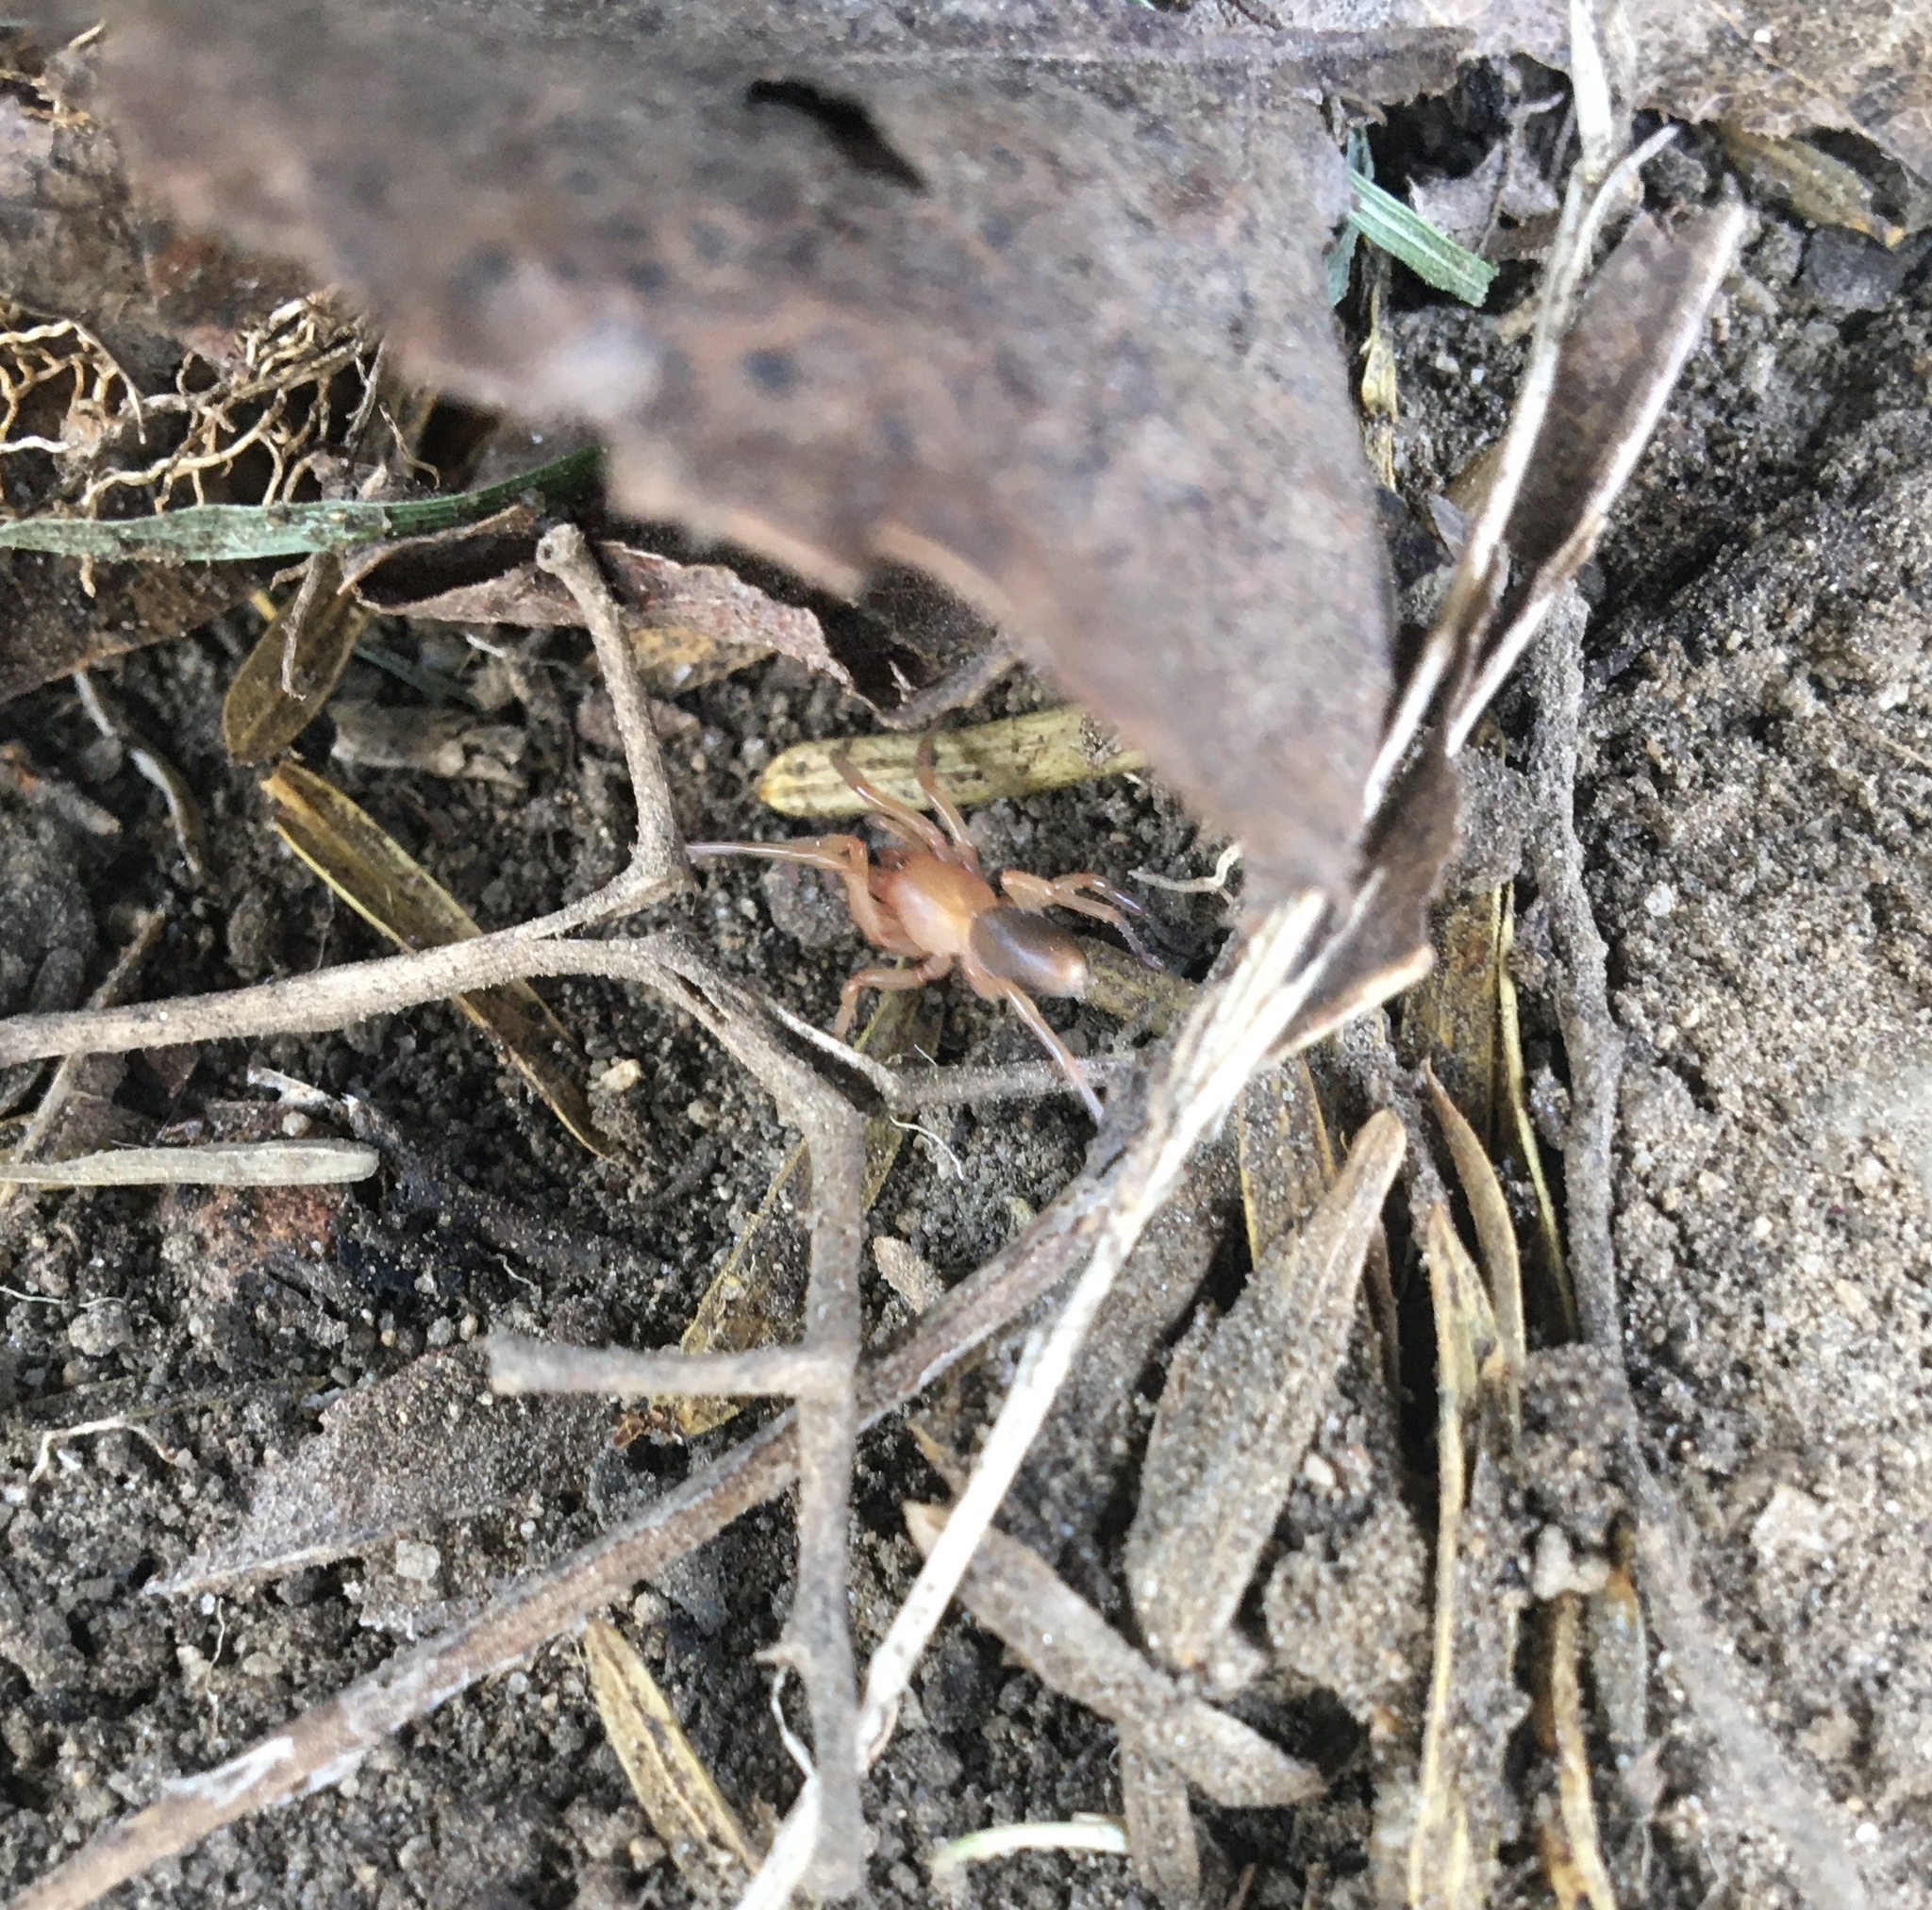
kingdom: Animalia
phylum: Arthropoda
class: Arachnida
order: Araneae
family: Dysderidae
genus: Dysdera
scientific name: Dysdera crocata
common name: Woodlouse spider
